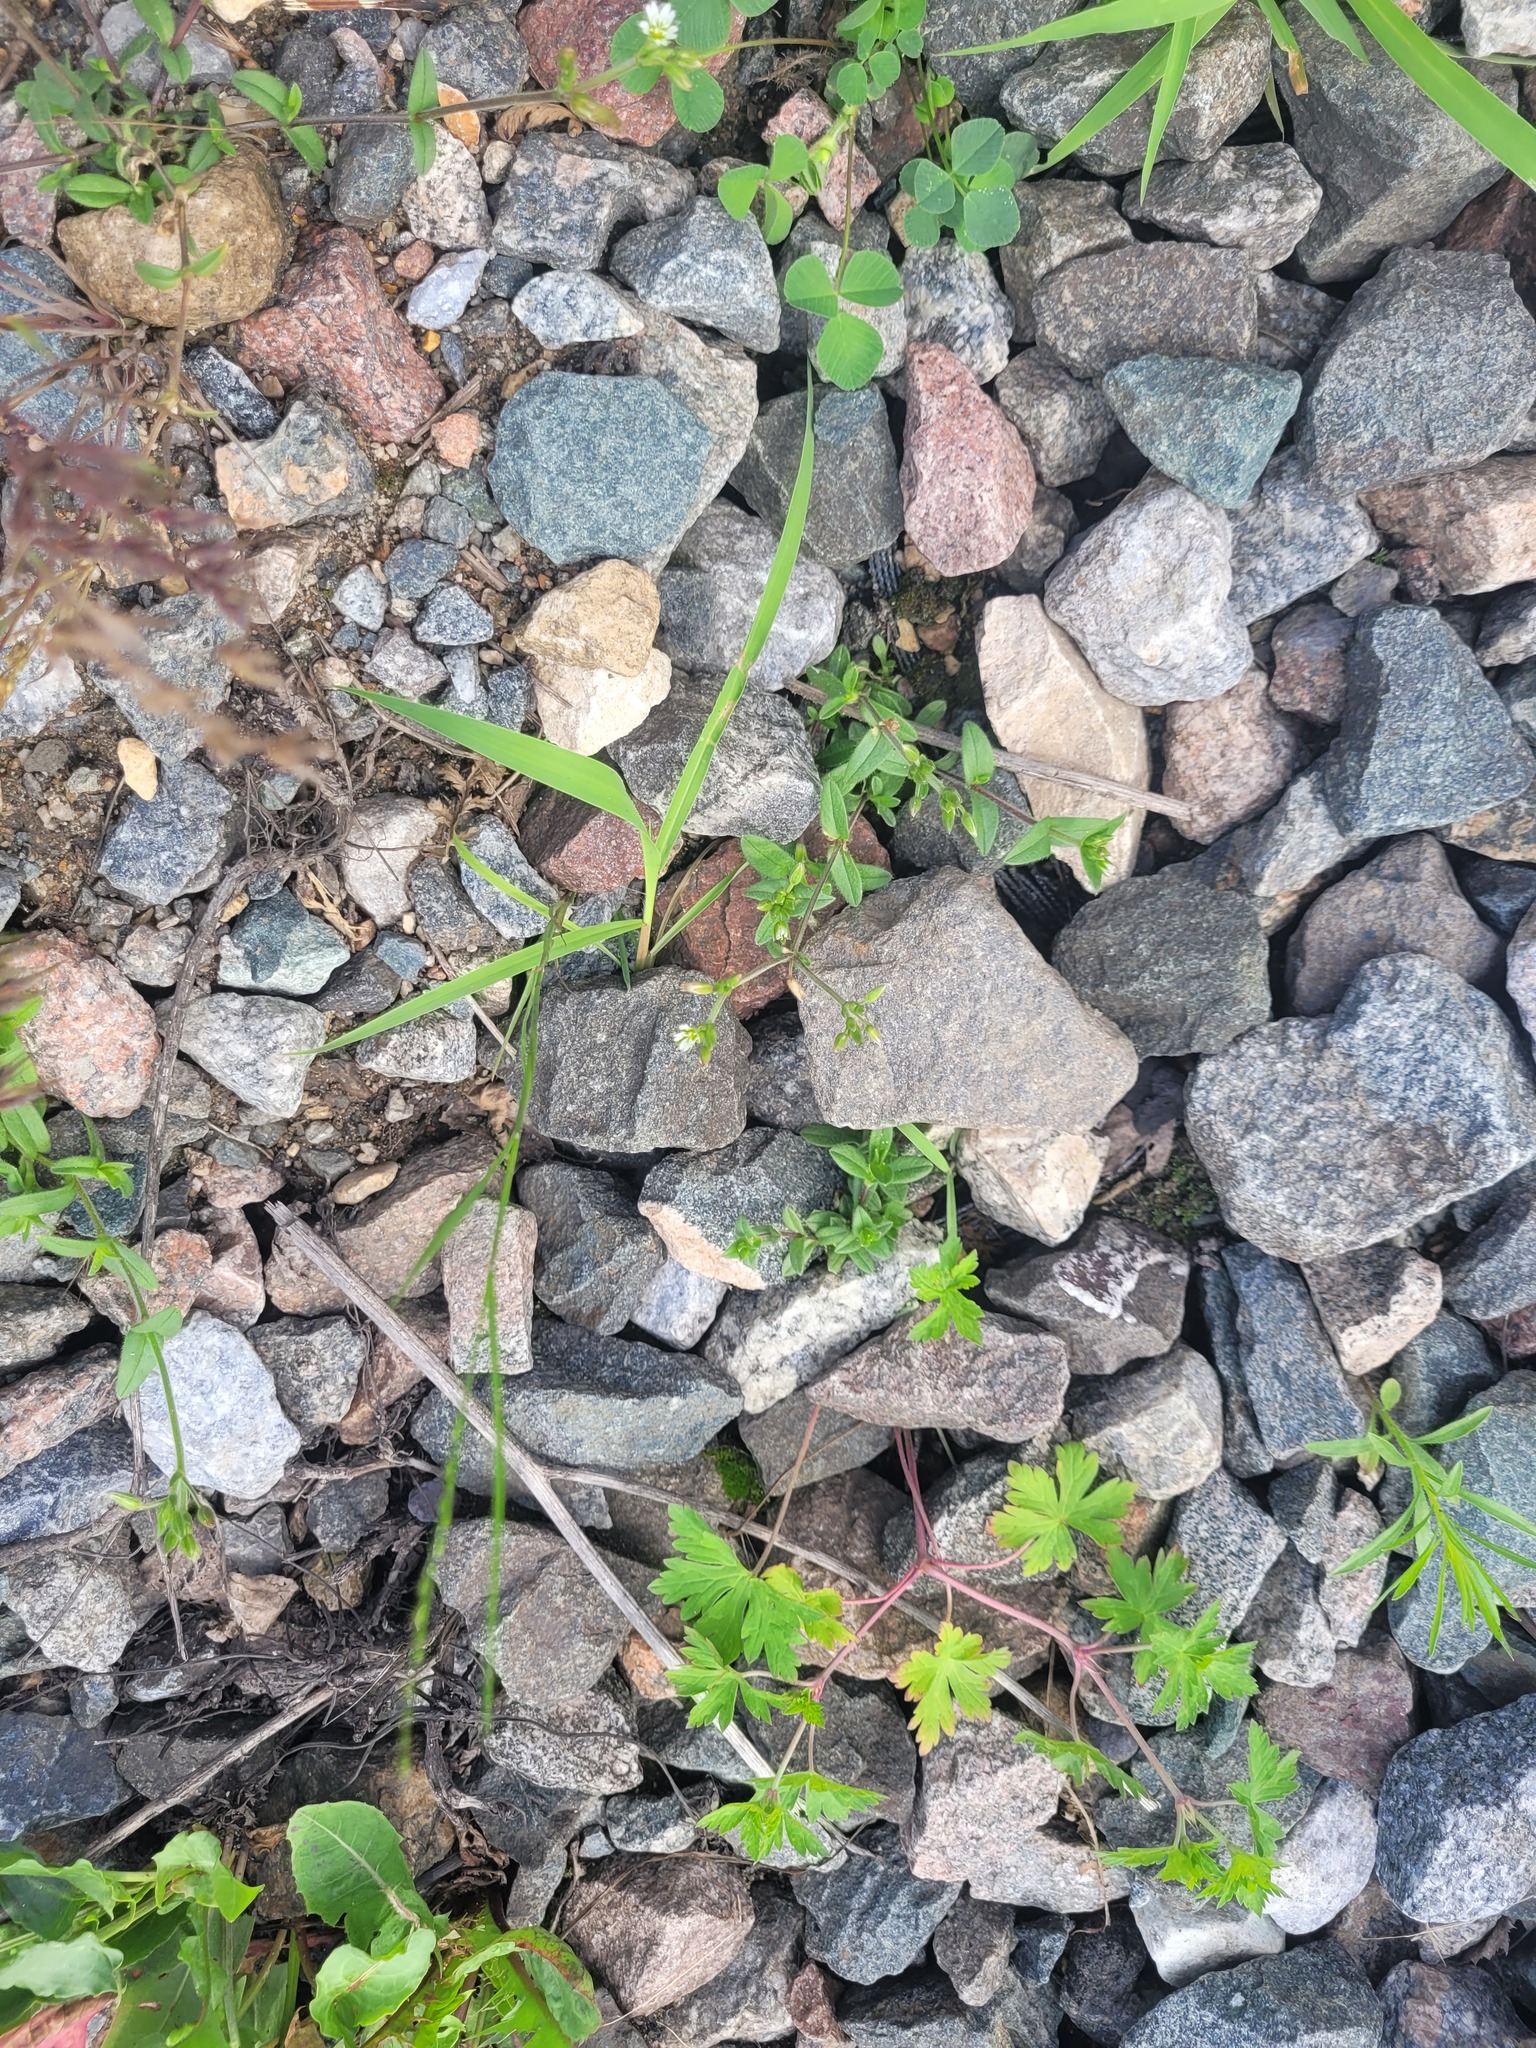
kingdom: Plantae
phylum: Tracheophyta
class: Magnoliopsida
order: Caryophyllales
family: Caryophyllaceae
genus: Cerastium
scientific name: Cerastium holosteoides
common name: Big chickweed
